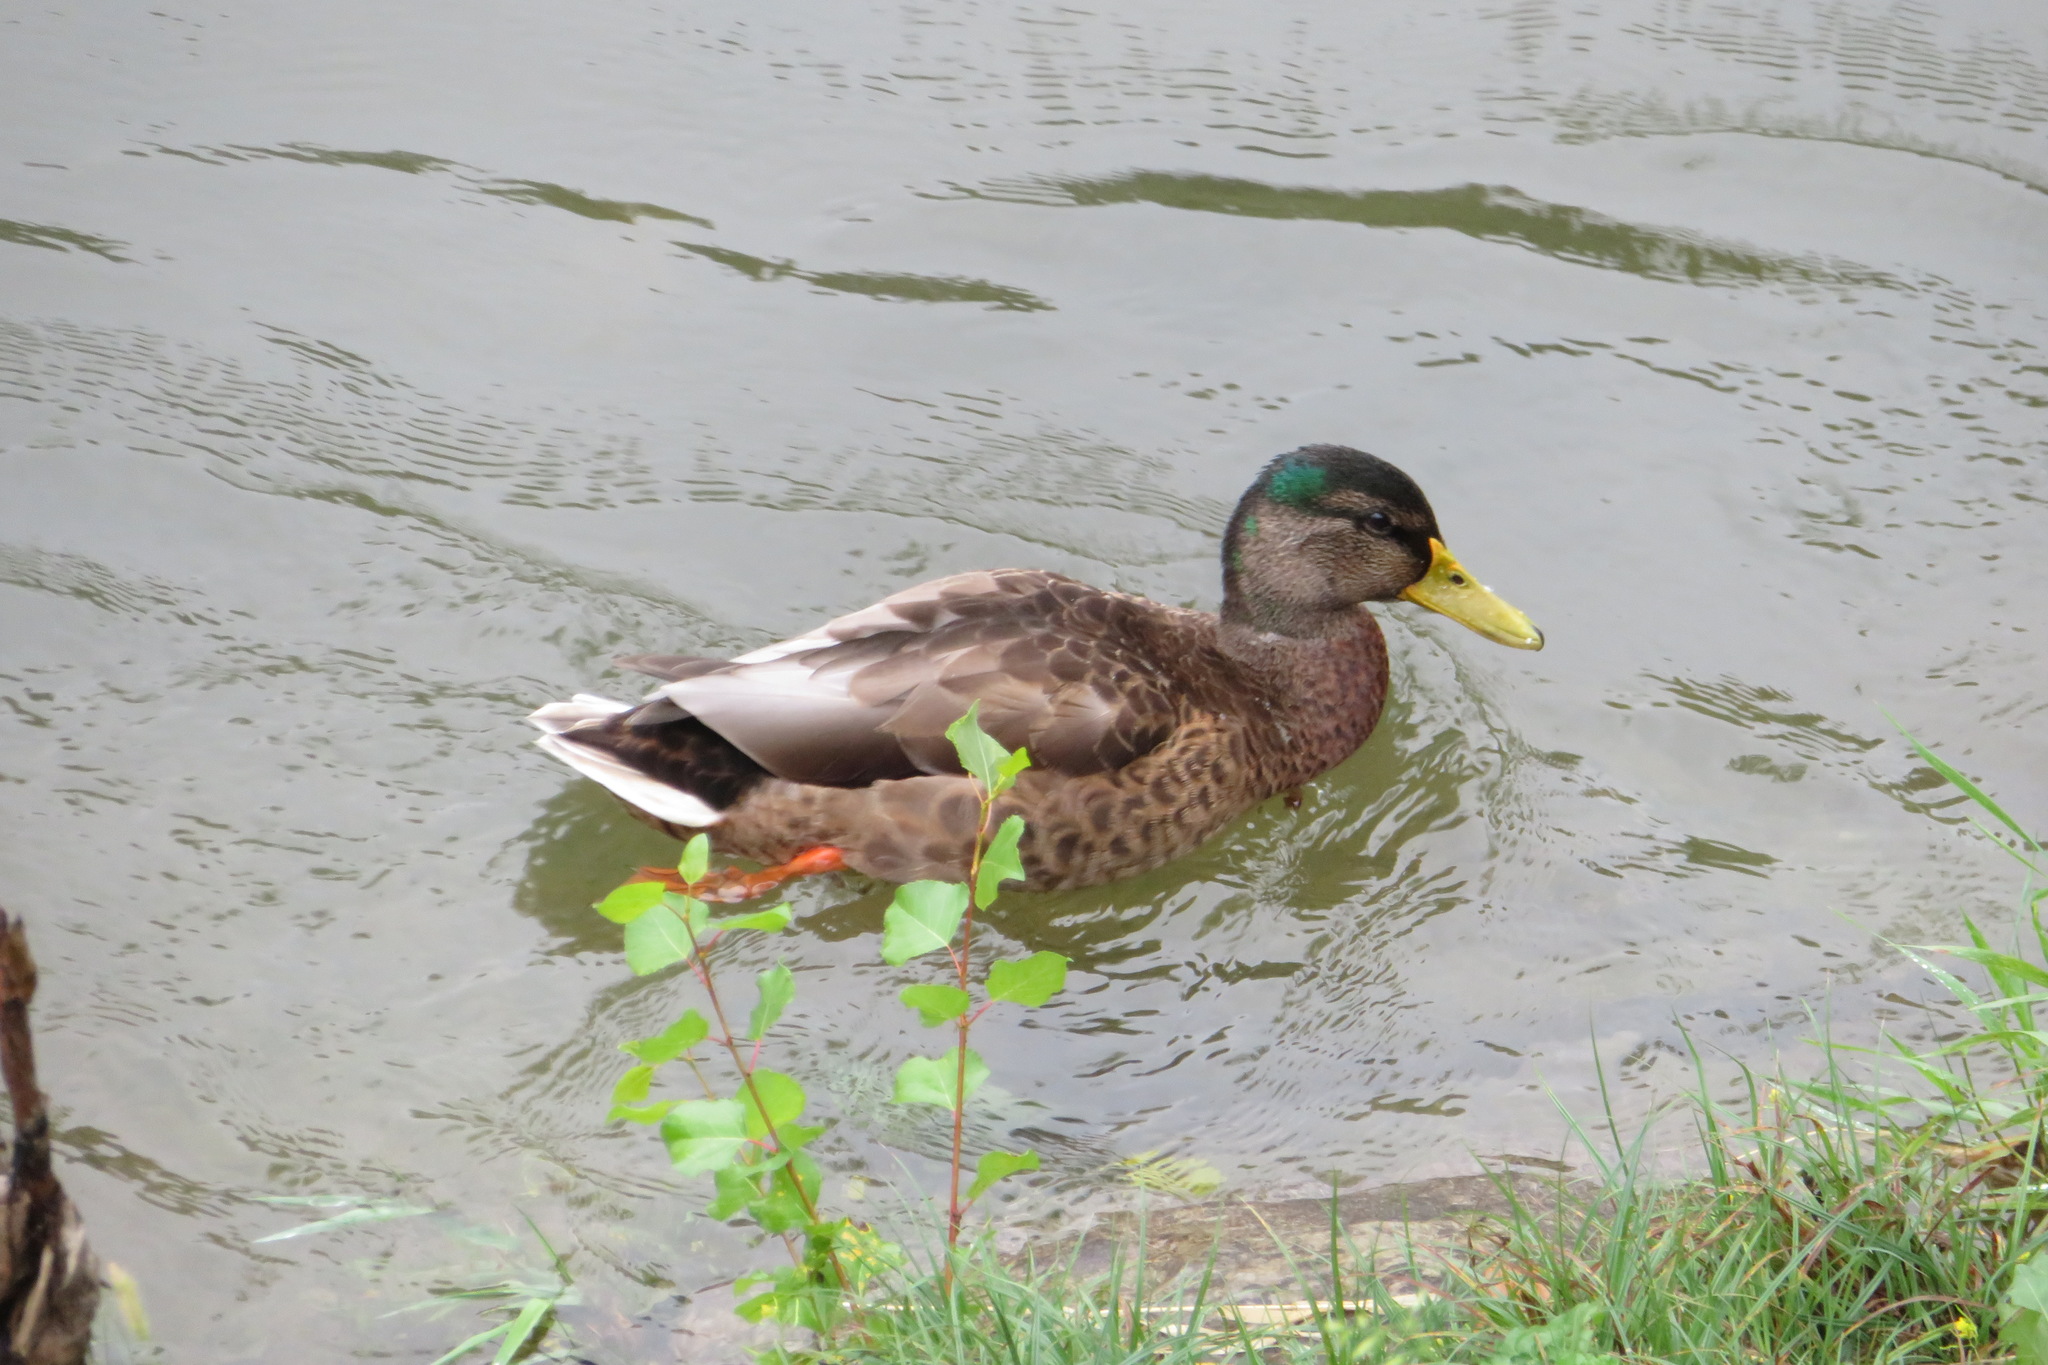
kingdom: Animalia
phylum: Chordata
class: Aves
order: Anseriformes
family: Anatidae
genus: Anas
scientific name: Anas platyrhynchos
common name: Mallard
